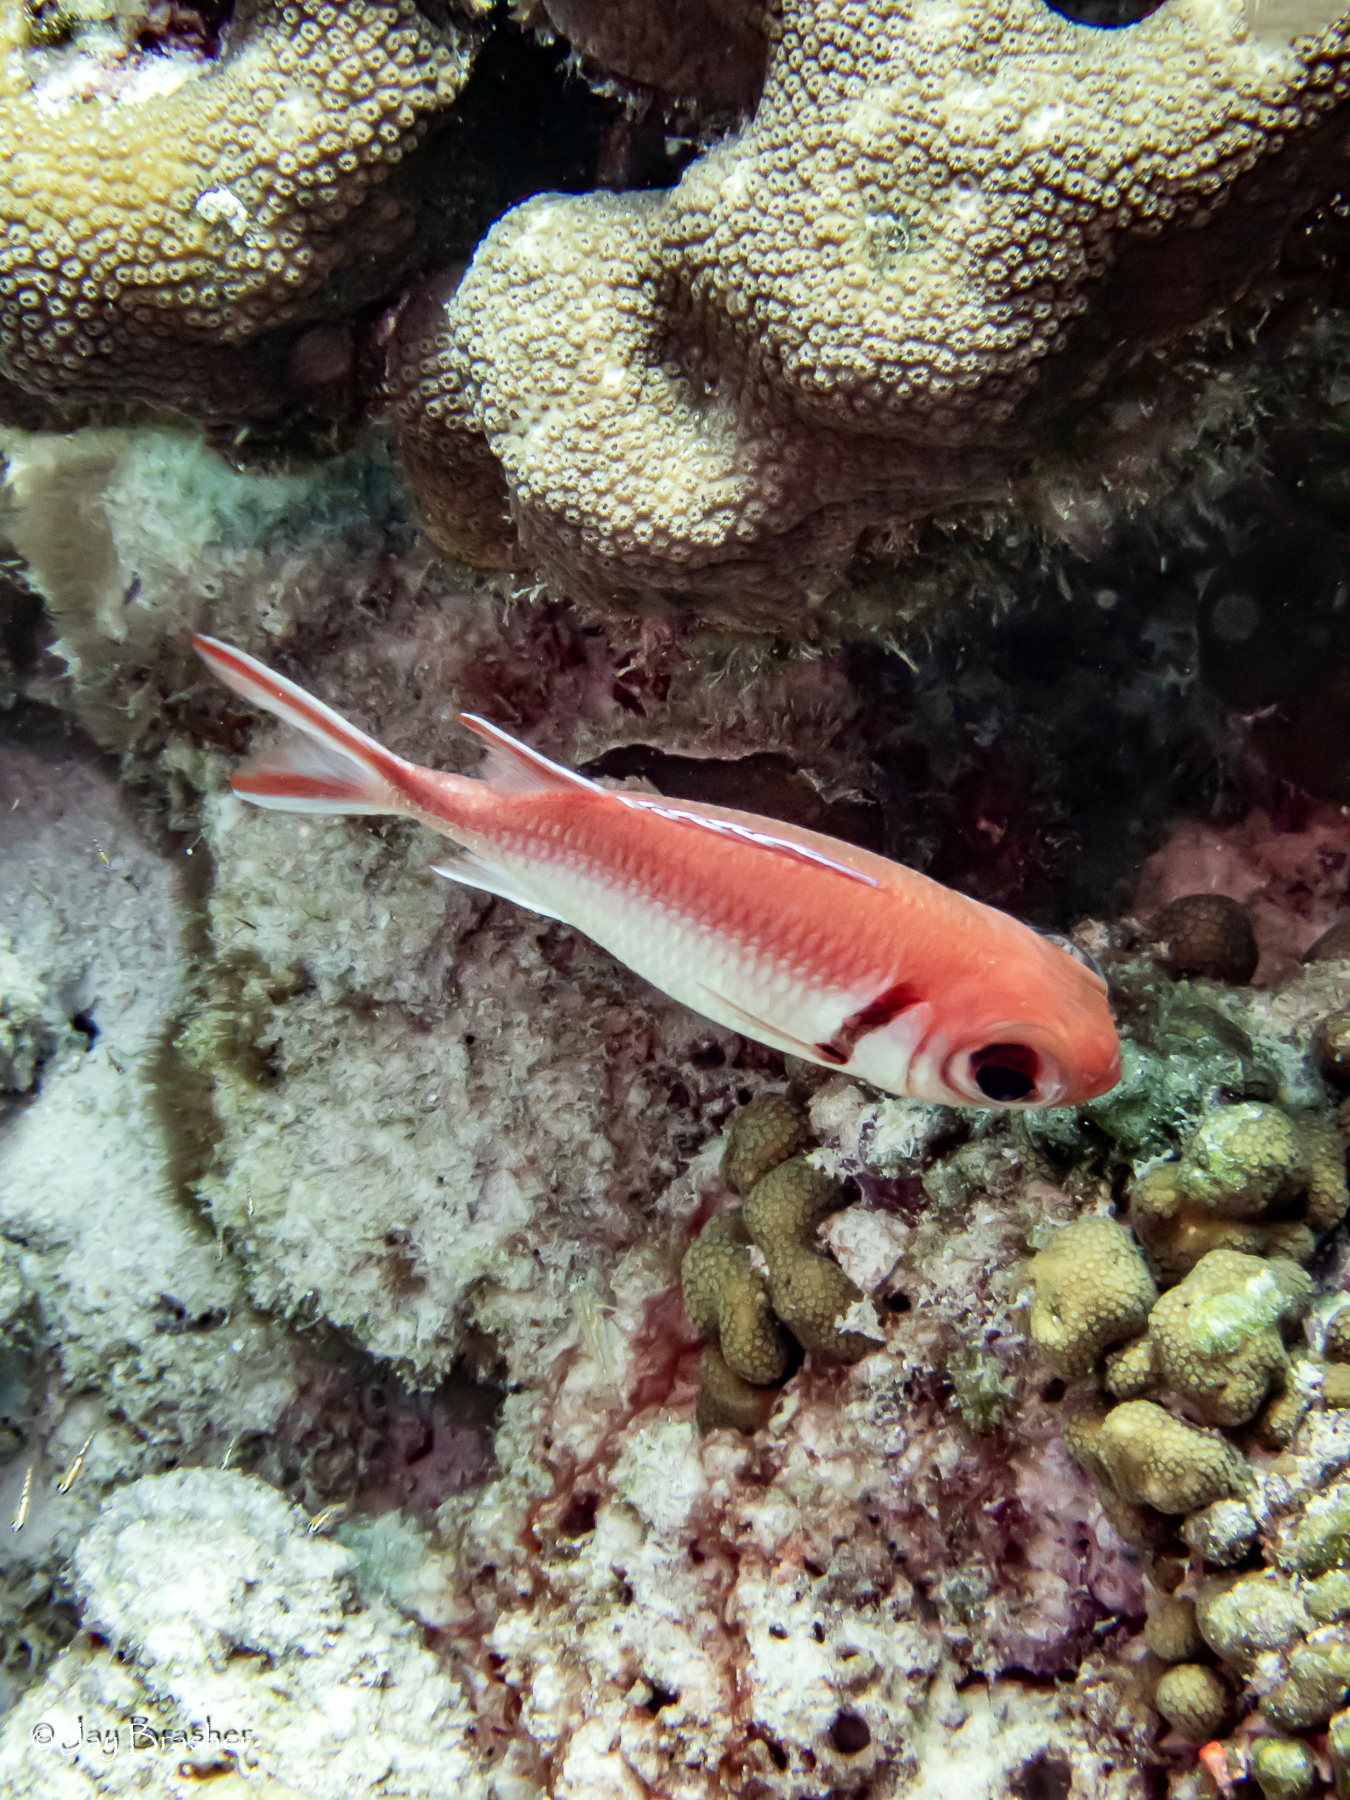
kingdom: Animalia
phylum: Cnidaria
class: Anthozoa
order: Scleractinia
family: Pocilloporidae
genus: Madracis
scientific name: Madracis decactis
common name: Ten-ray star coral
